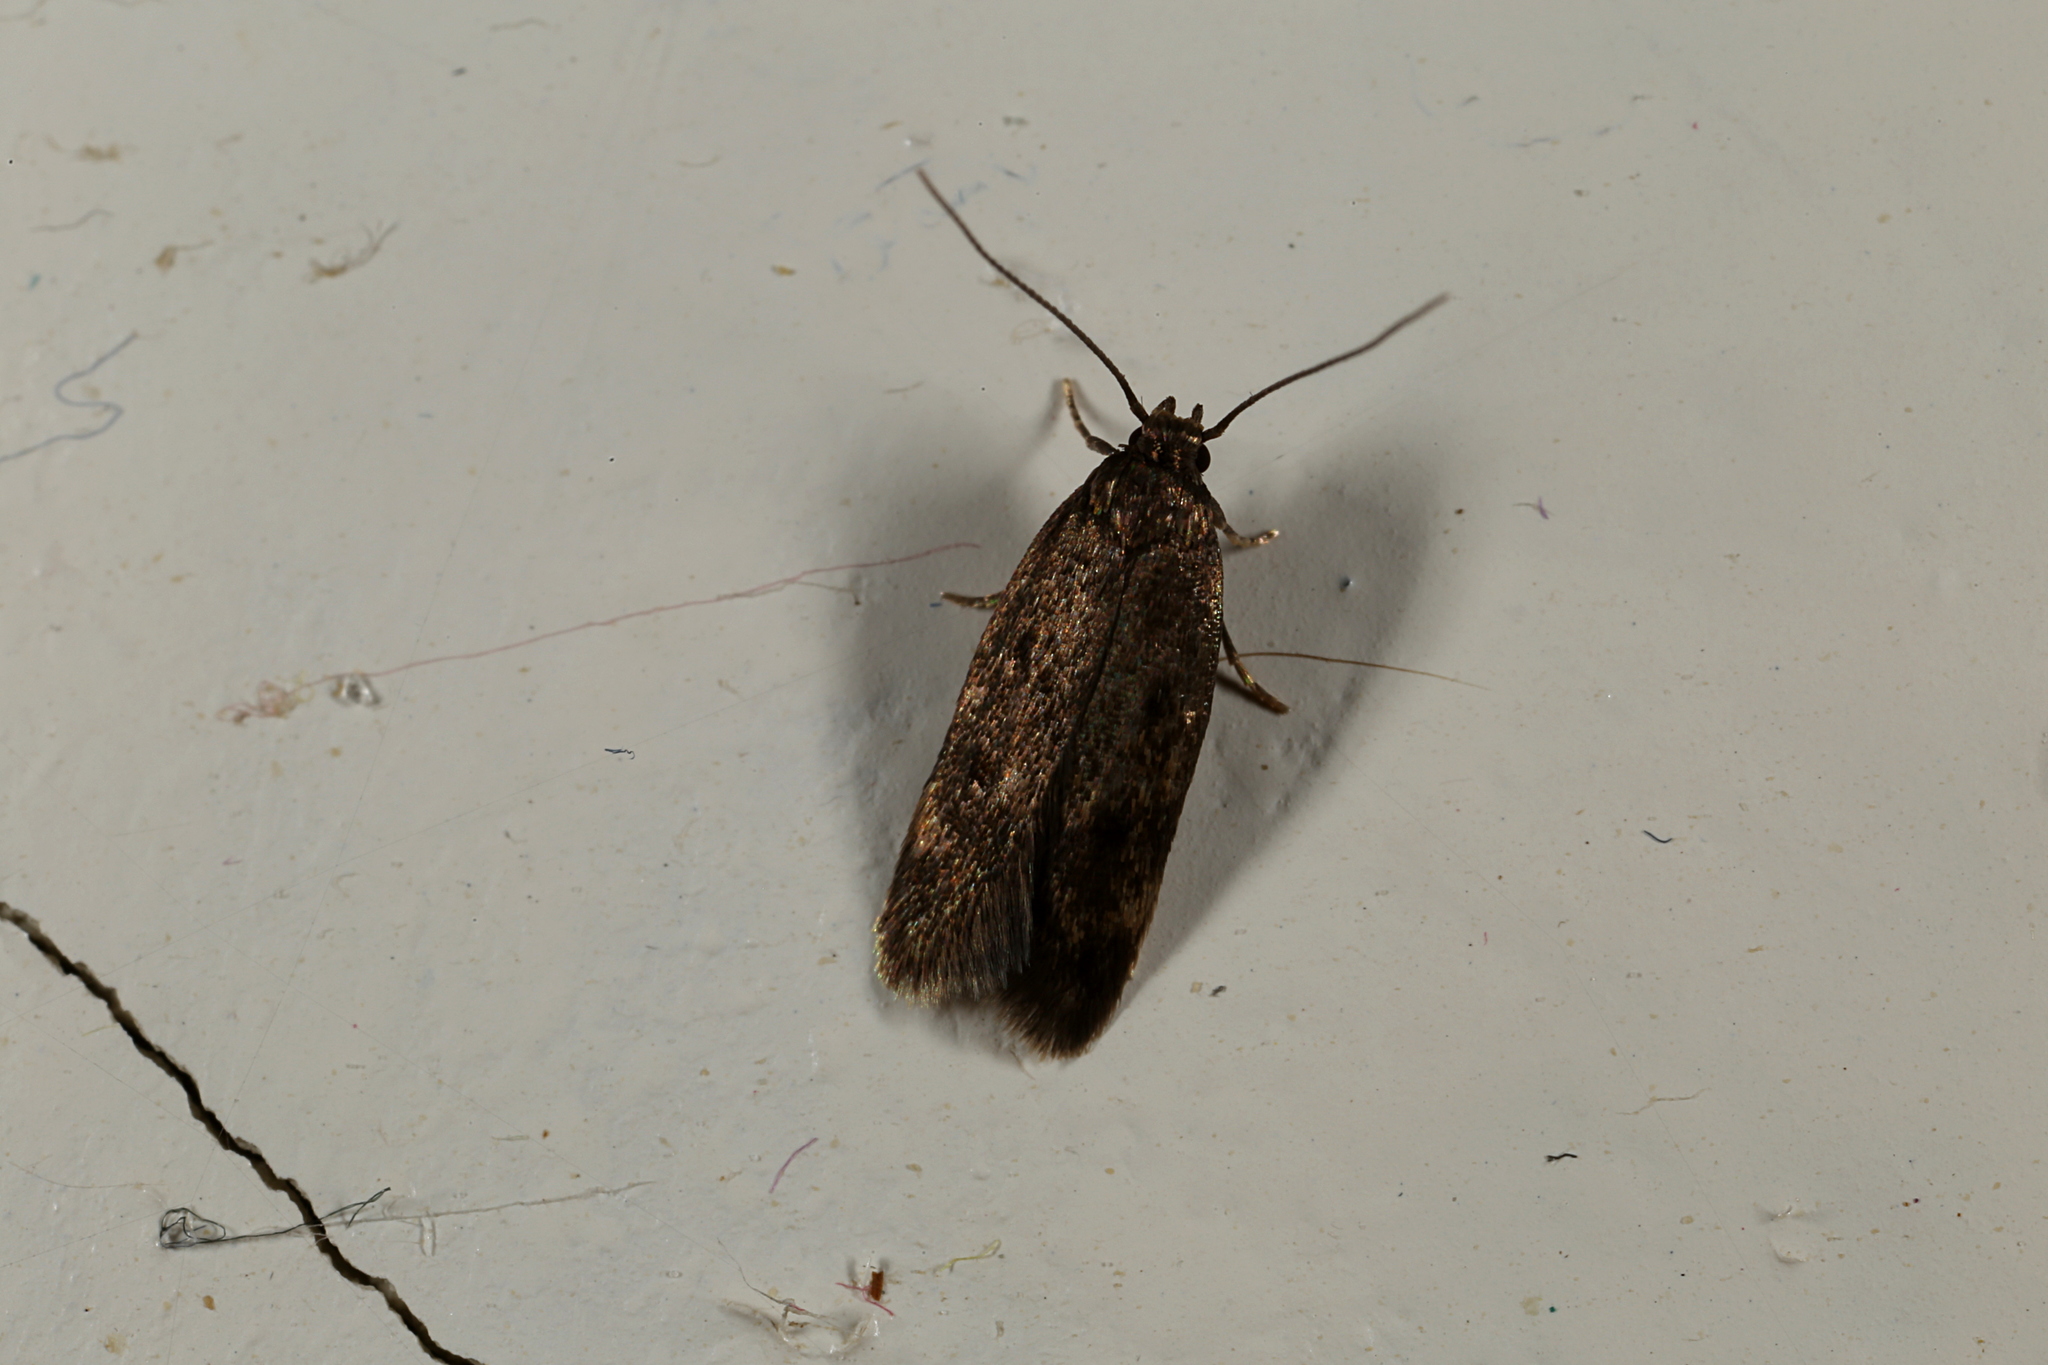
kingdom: Animalia
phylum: Arthropoda
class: Insecta
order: Lepidoptera
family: Oecophoridae
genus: Borkhausenia
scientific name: Borkhausenia fuscescens
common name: Small dingy tubic
